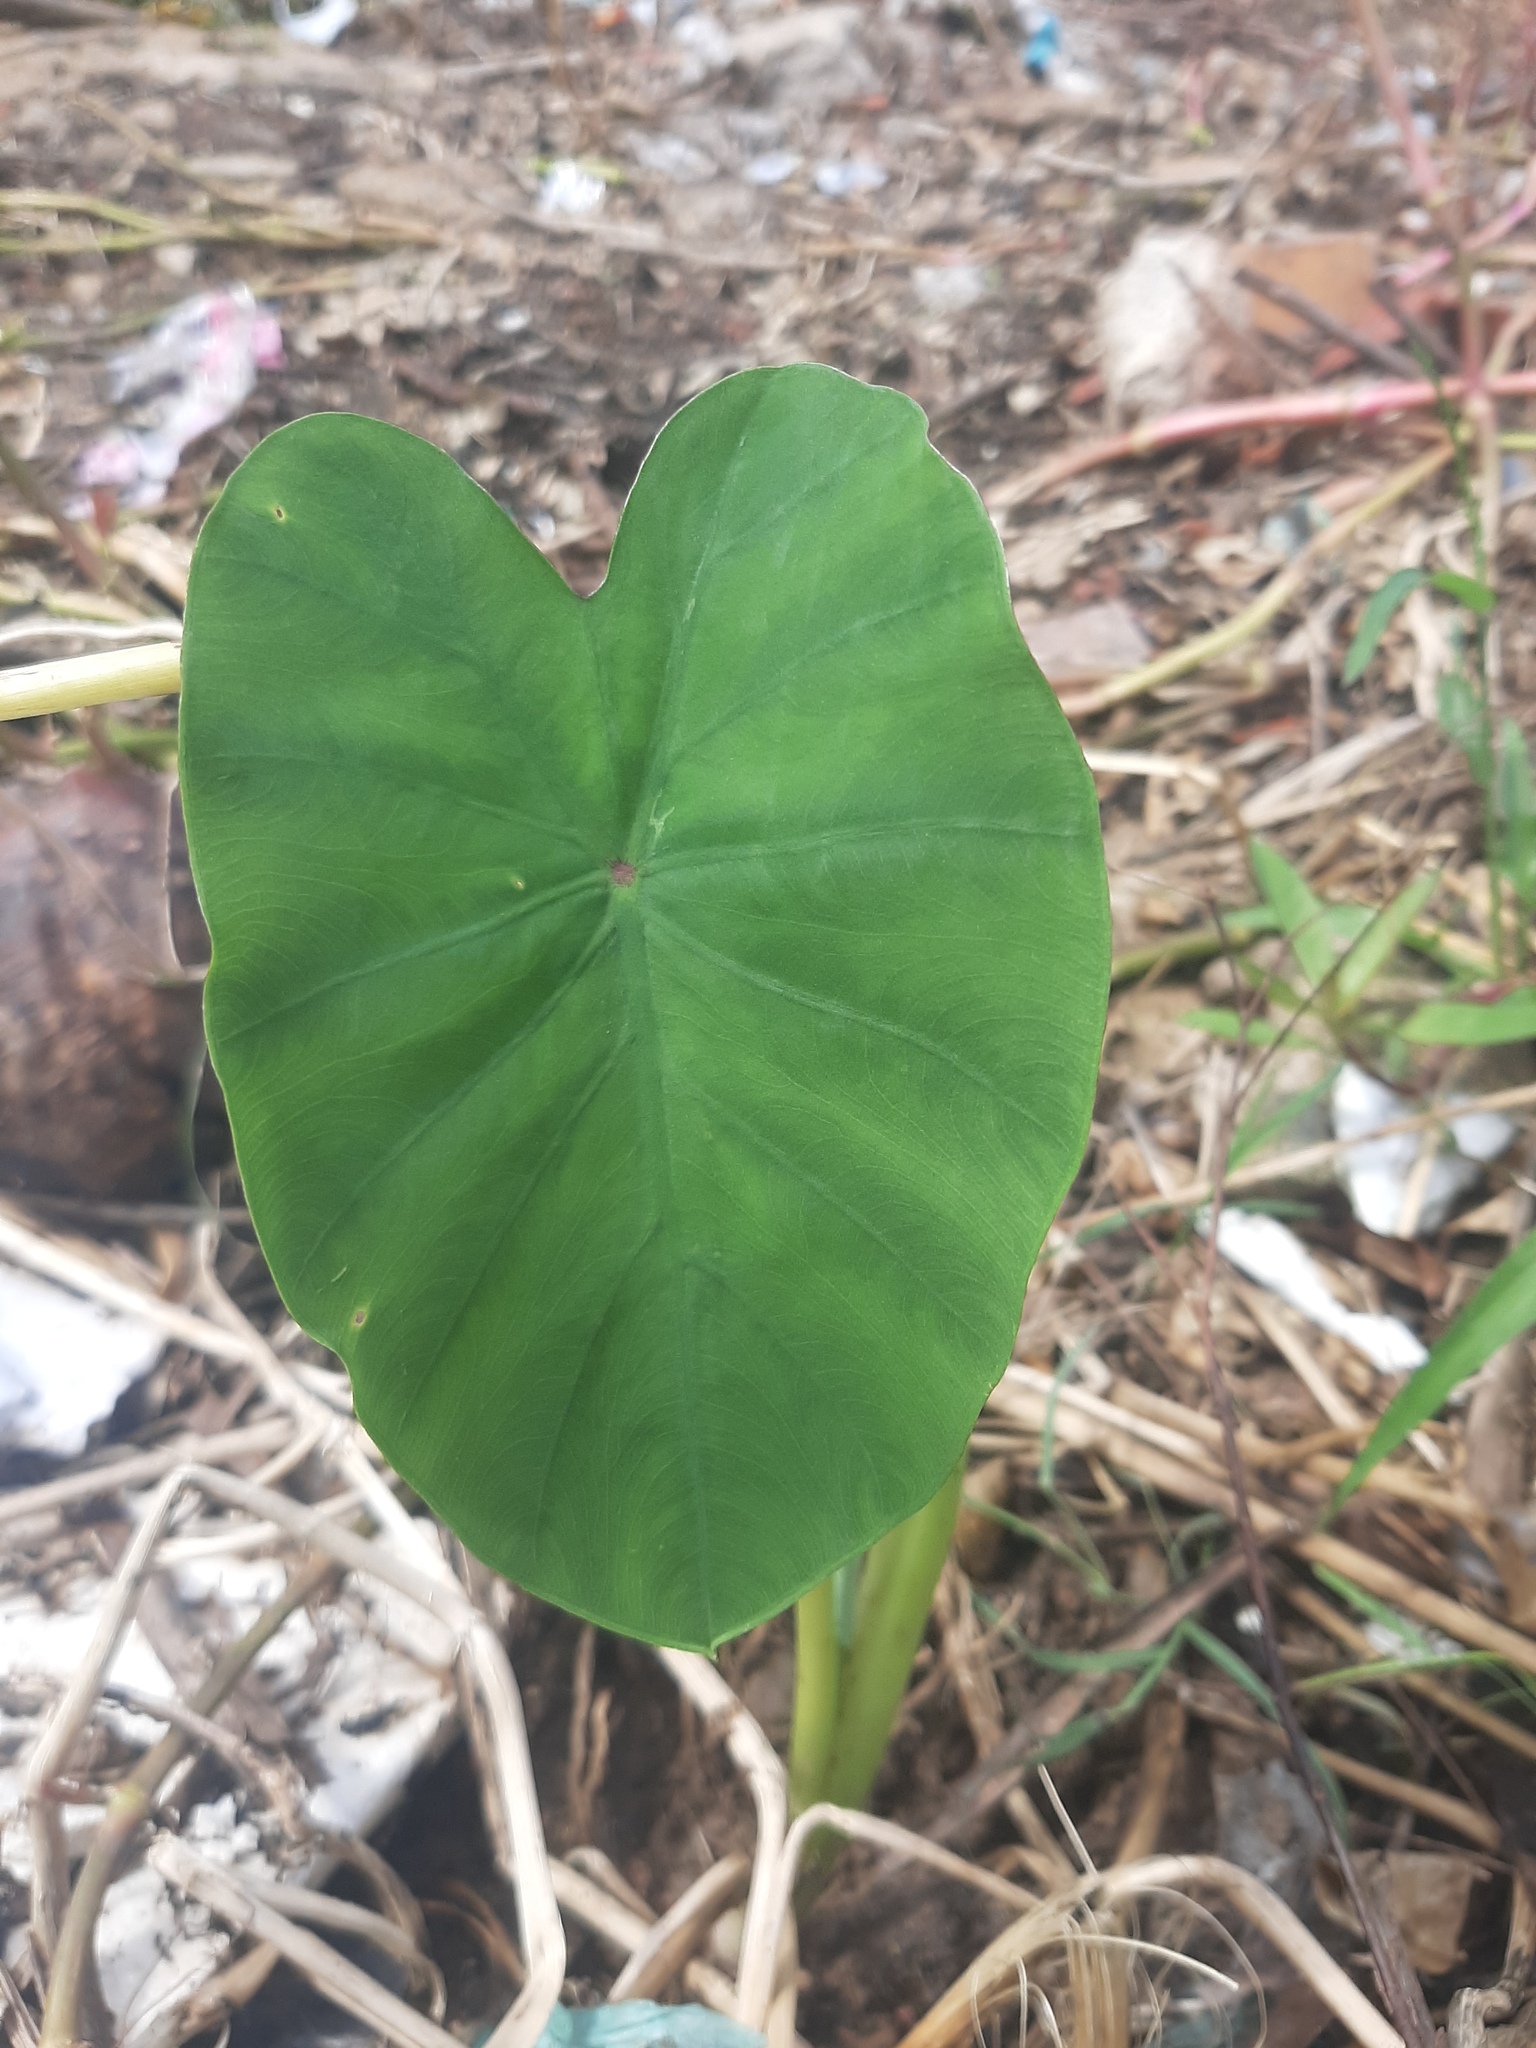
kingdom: Plantae
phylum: Tracheophyta
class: Liliopsida
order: Alismatales
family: Araceae
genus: Colocasia
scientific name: Colocasia esculenta
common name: Taro
